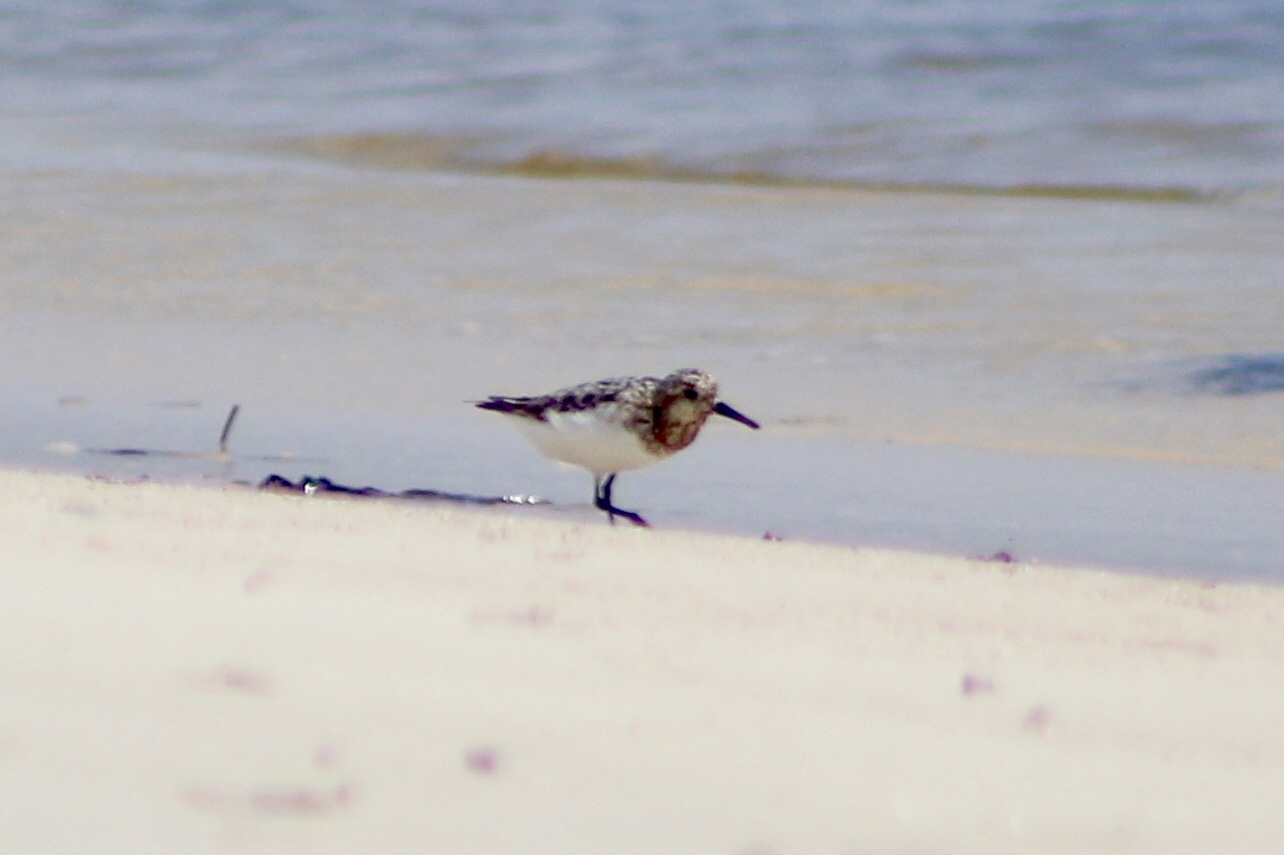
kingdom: Animalia
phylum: Chordata
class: Aves
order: Charadriiformes
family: Scolopacidae
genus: Calidris
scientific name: Calidris alba
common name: Sanderling
